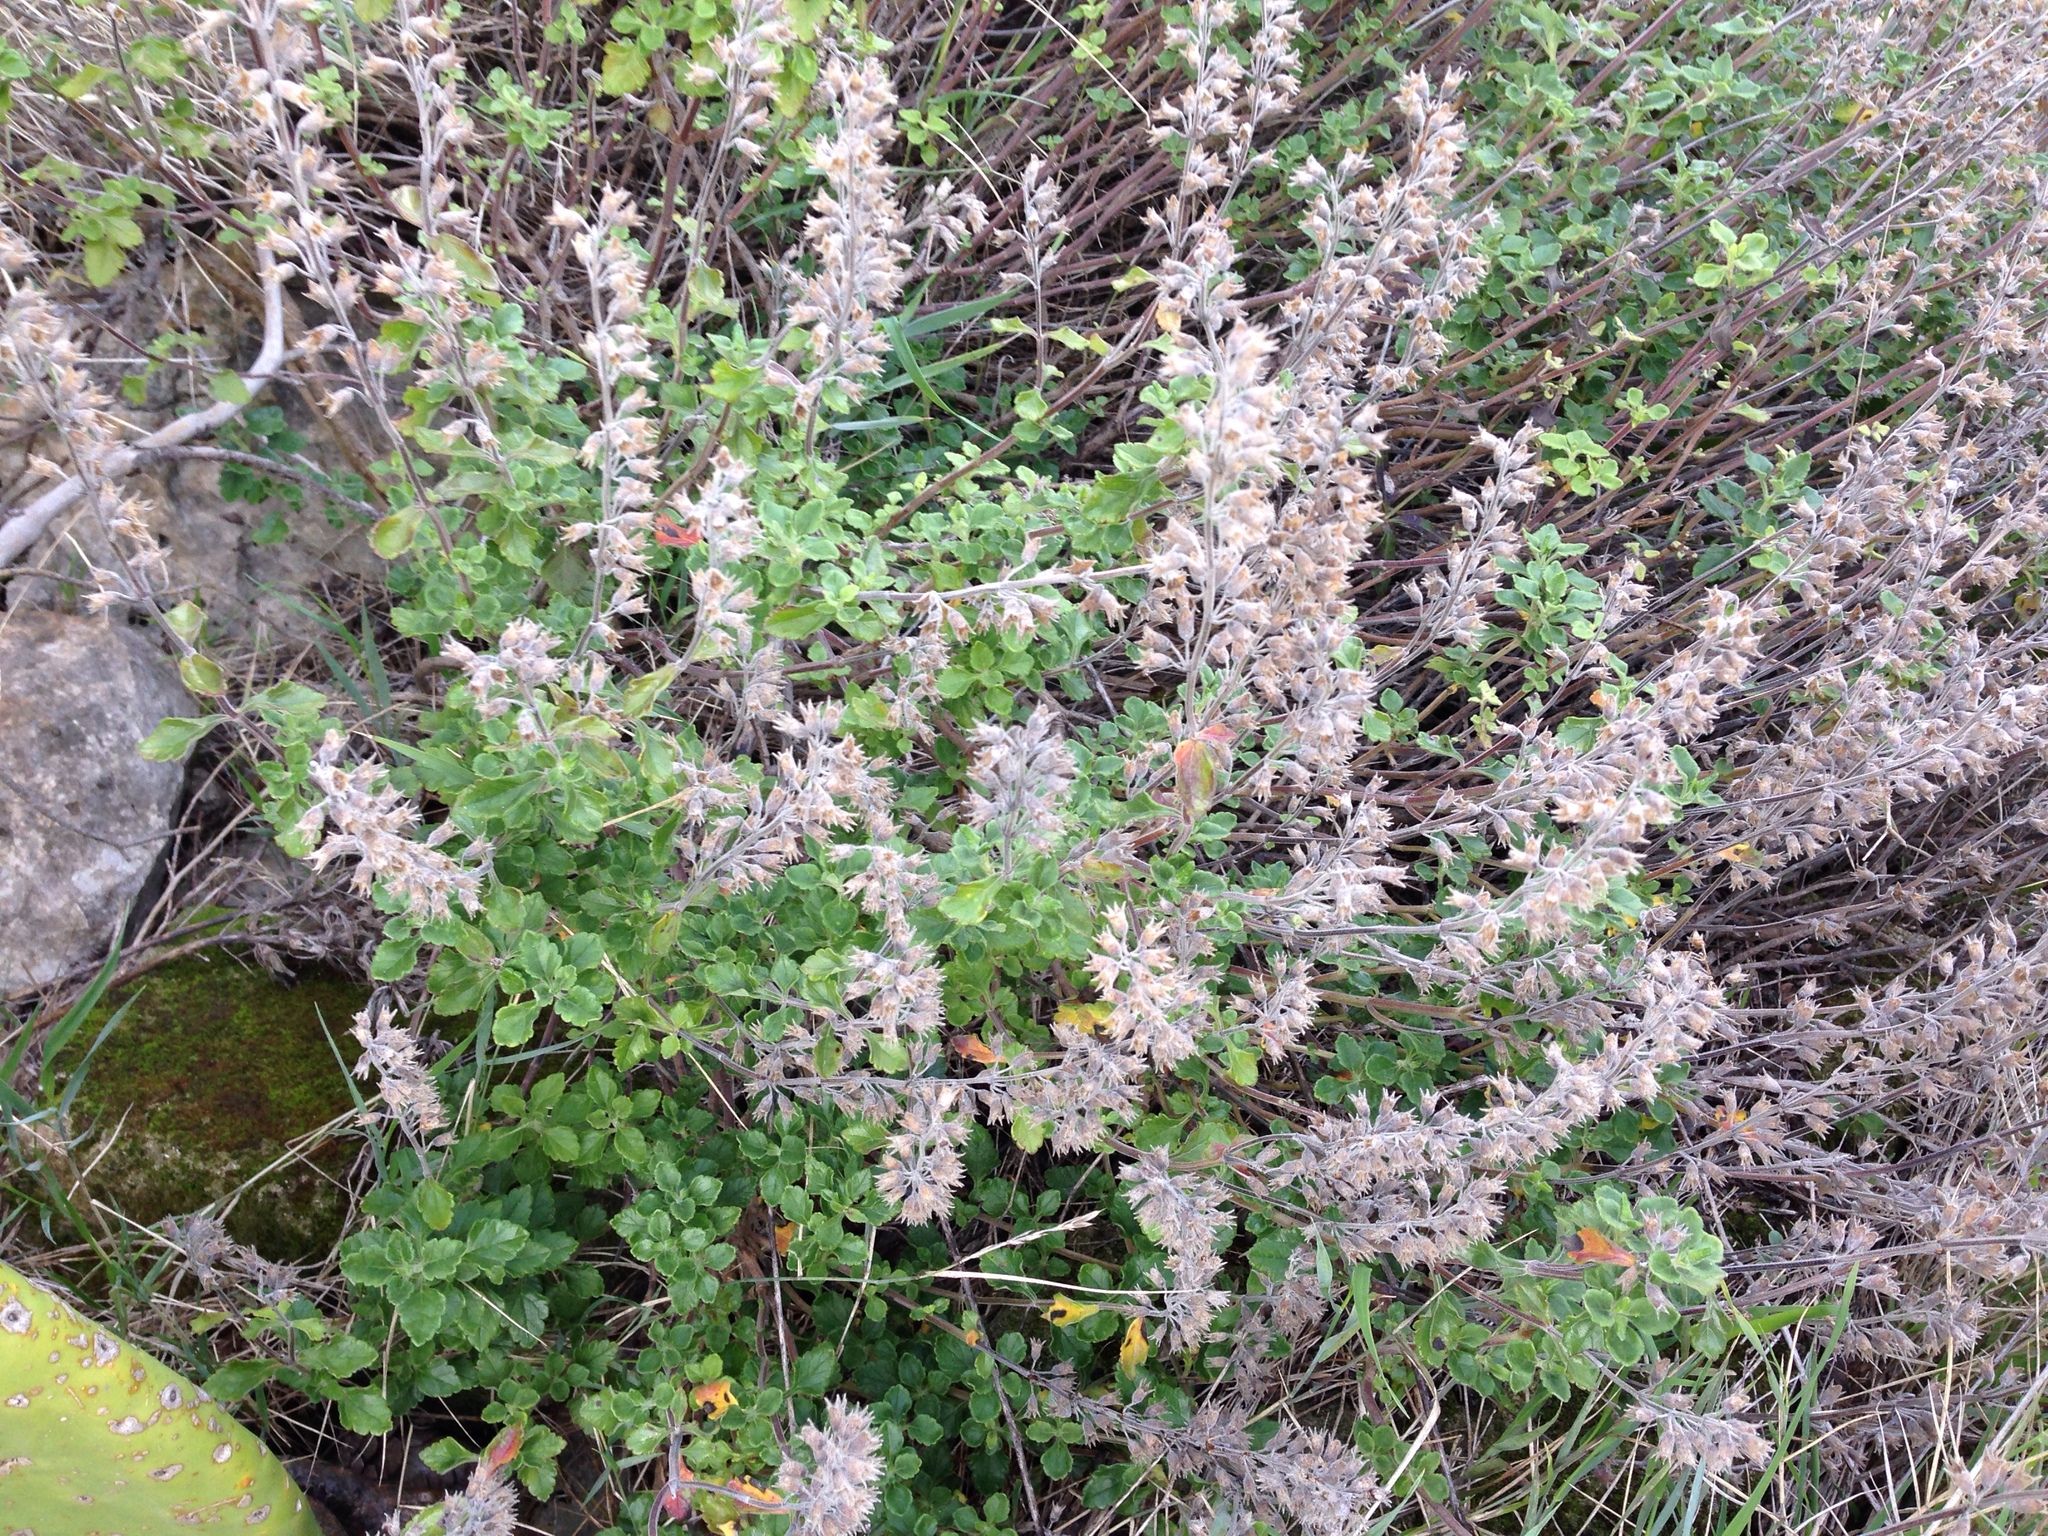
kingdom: Plantae
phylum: Tracheophyta
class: Magnoliopsida
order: Lamiales
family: Lamiaceae
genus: Teucrium
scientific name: Teucrium flavum
